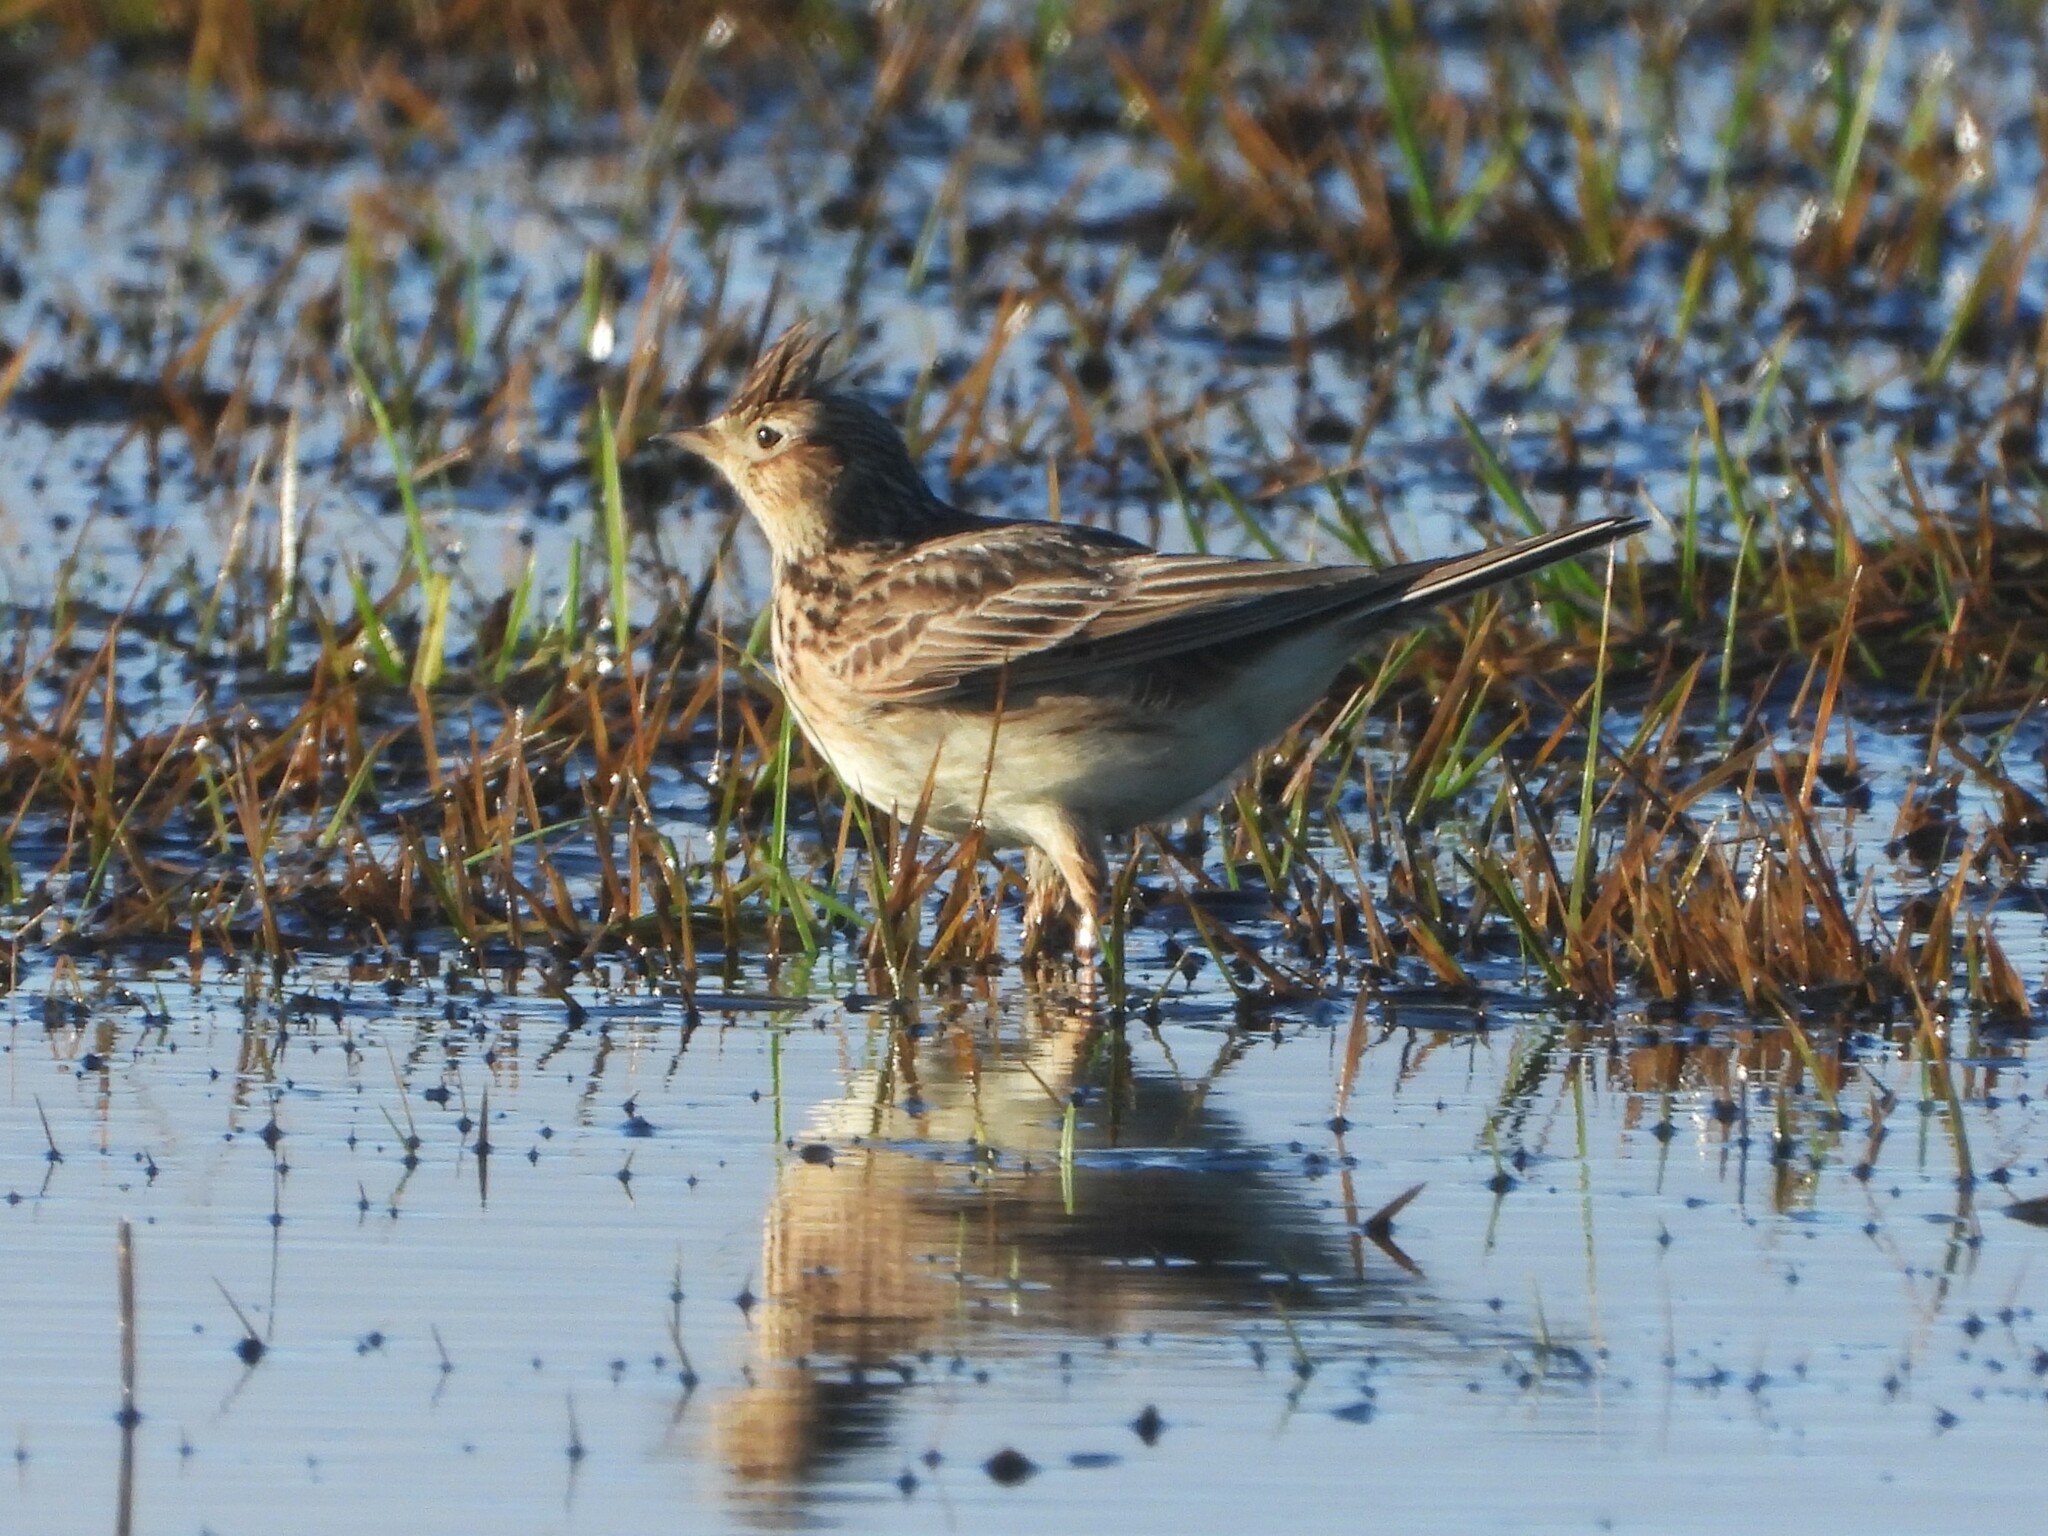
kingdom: Animalia
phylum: Chordata
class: Aves
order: Passeriformes
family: Alaudidae
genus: Alauda
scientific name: Alauda arvensis
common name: Eurasian skylark
